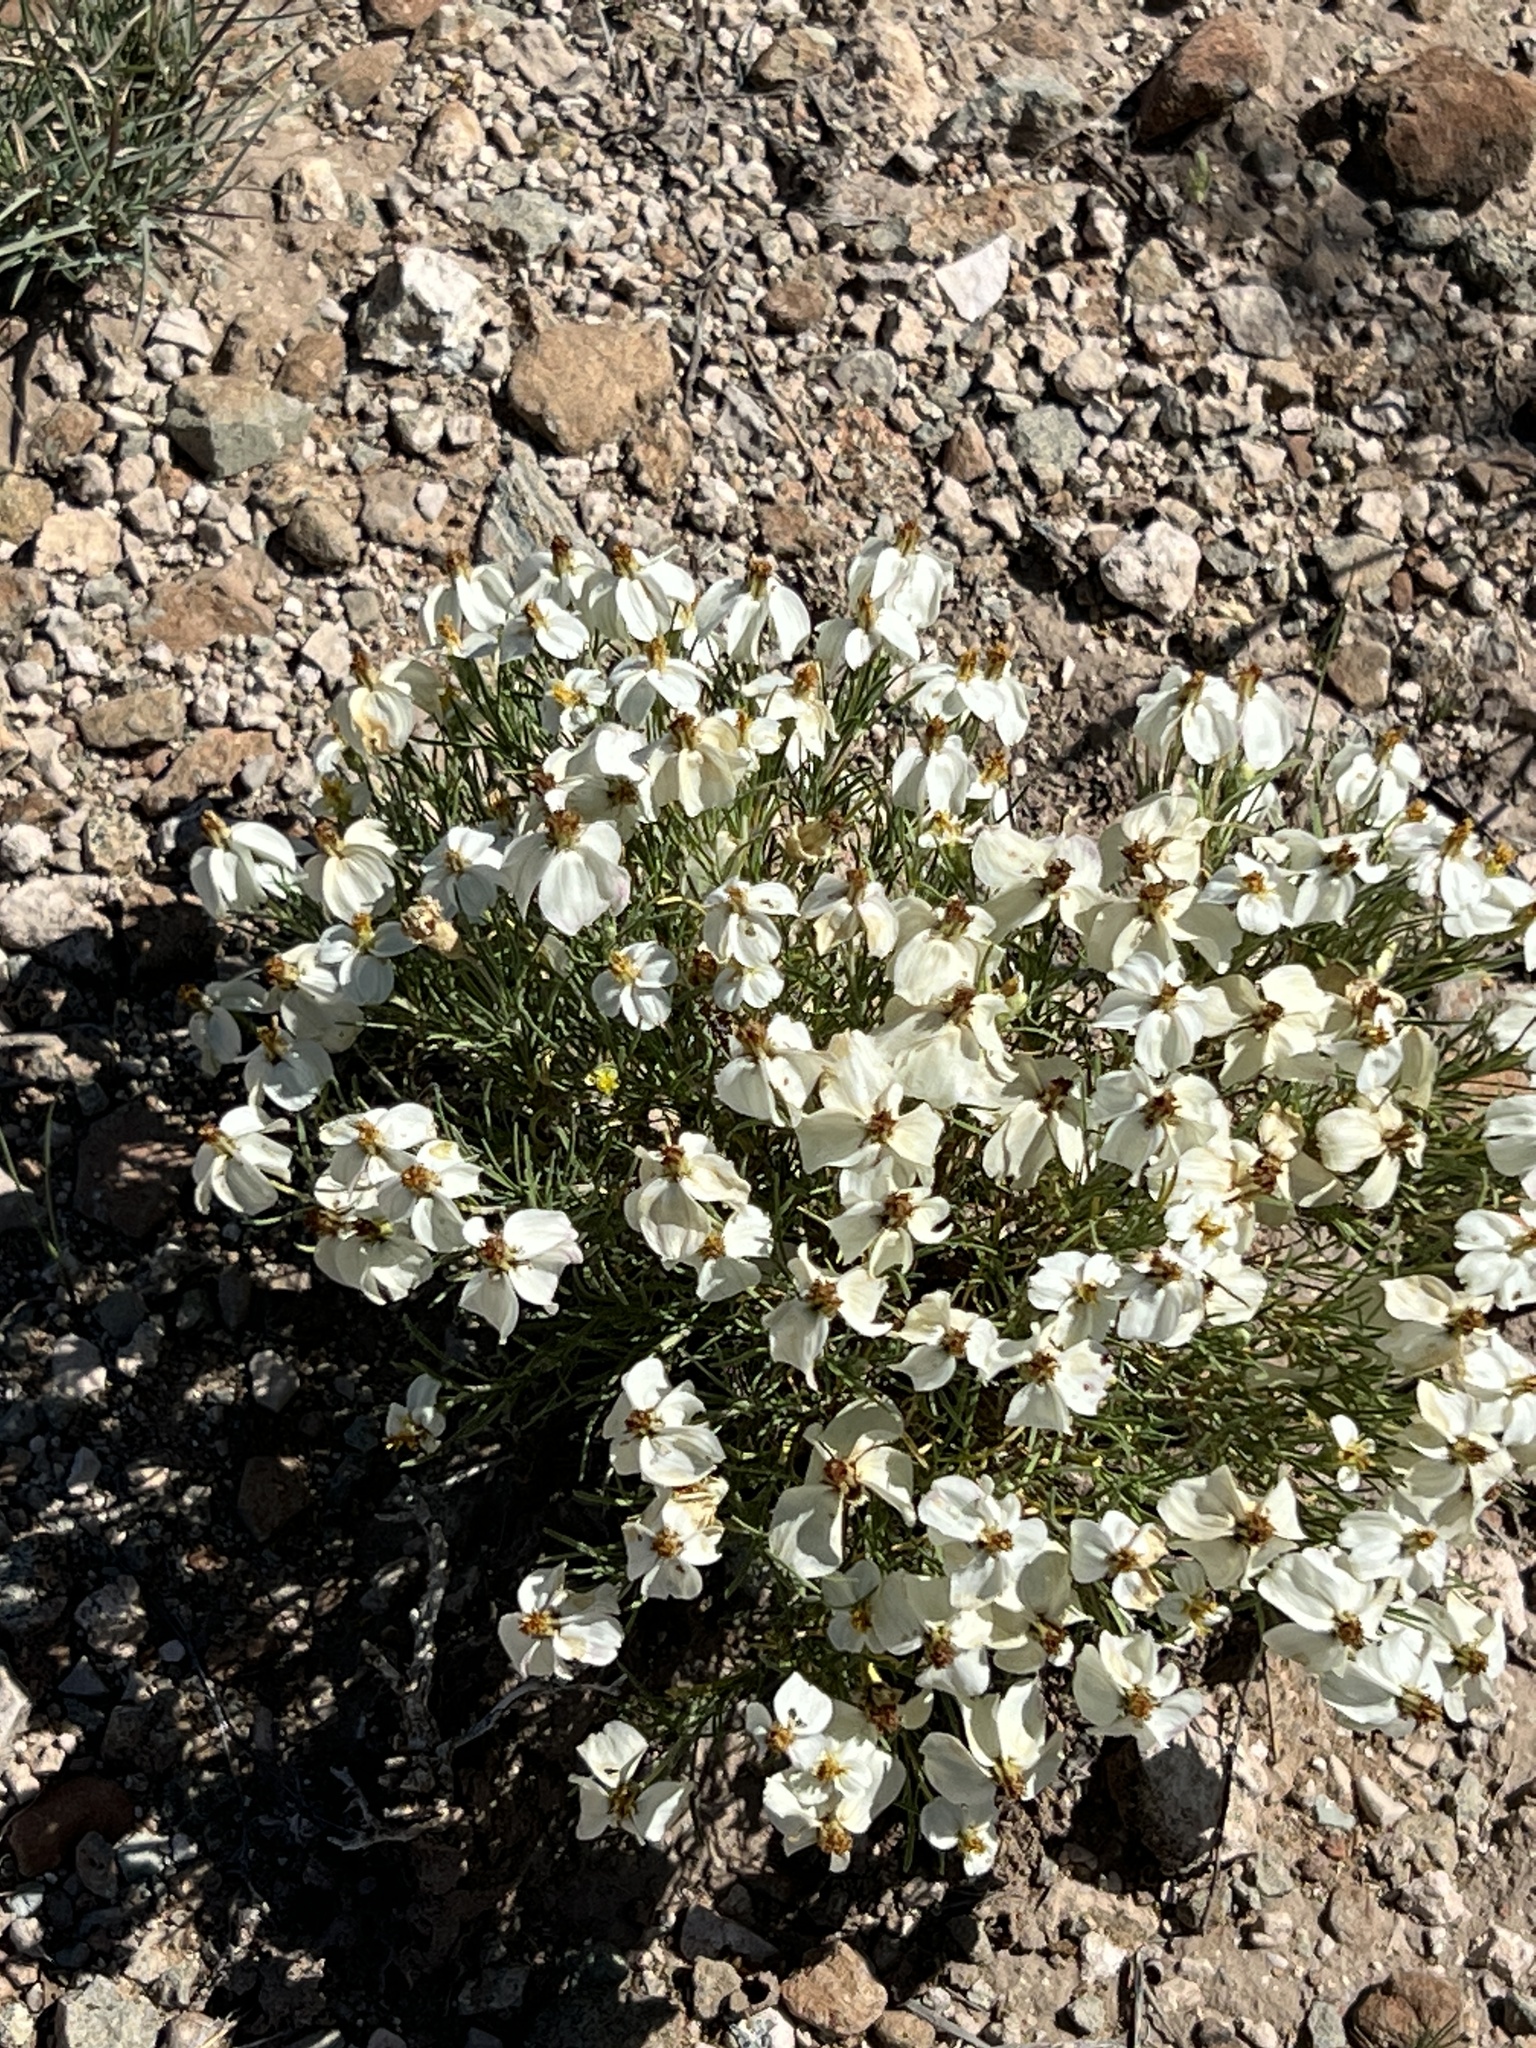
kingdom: Plantae
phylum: Tracheophyta
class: Magnoliopsida
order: Asterales
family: Asteraceae
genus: Zinnia
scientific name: Zinnia acerosa
